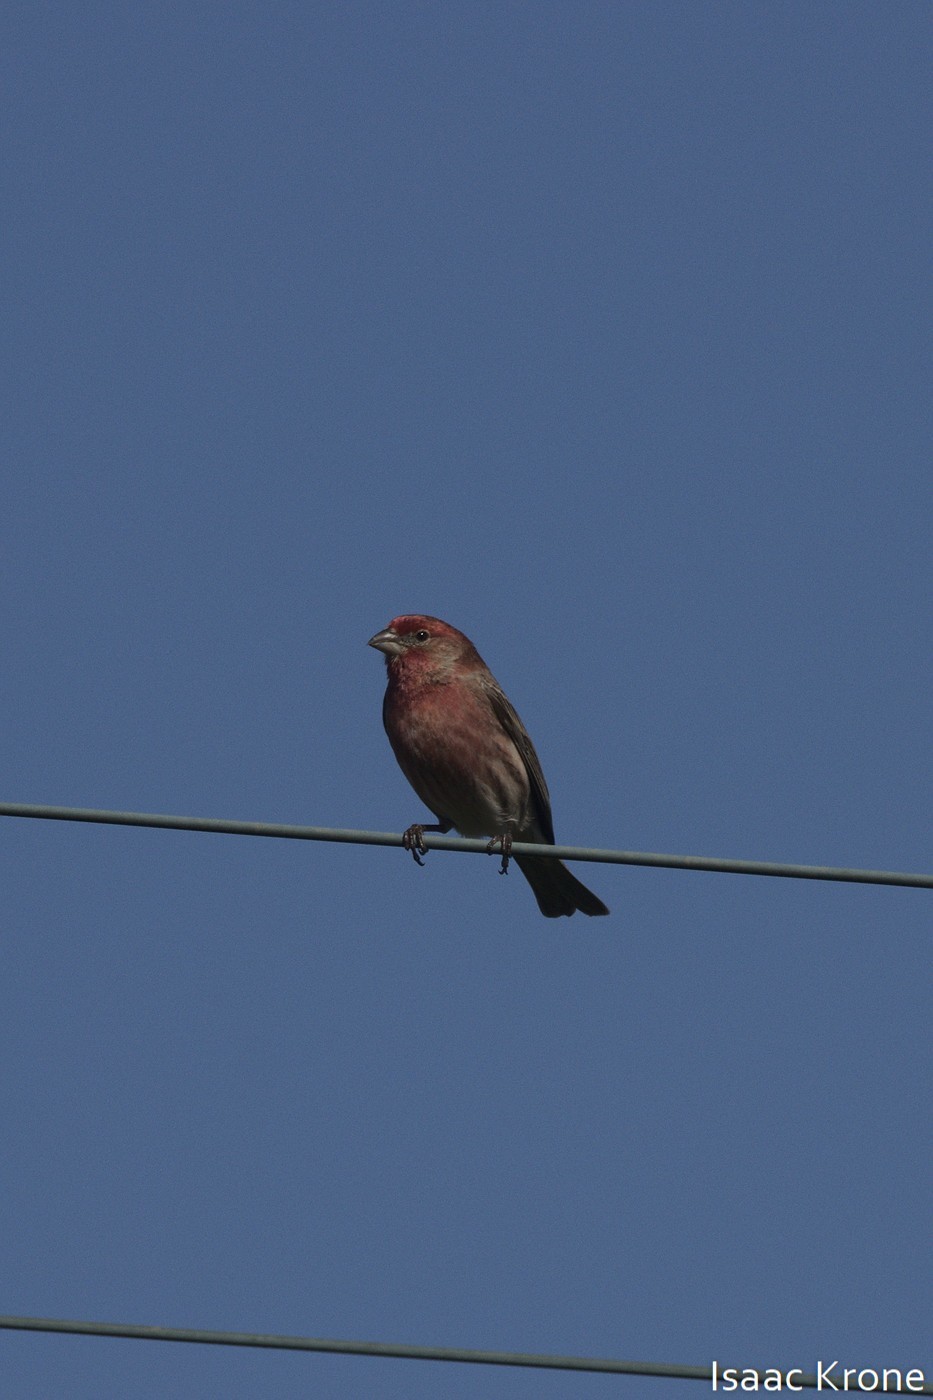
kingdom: Animalia
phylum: Chordata
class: Aves
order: Passeriformes
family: Fringillidae
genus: Haemorhous
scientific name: Haemorhous mexicanus
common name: House finch
